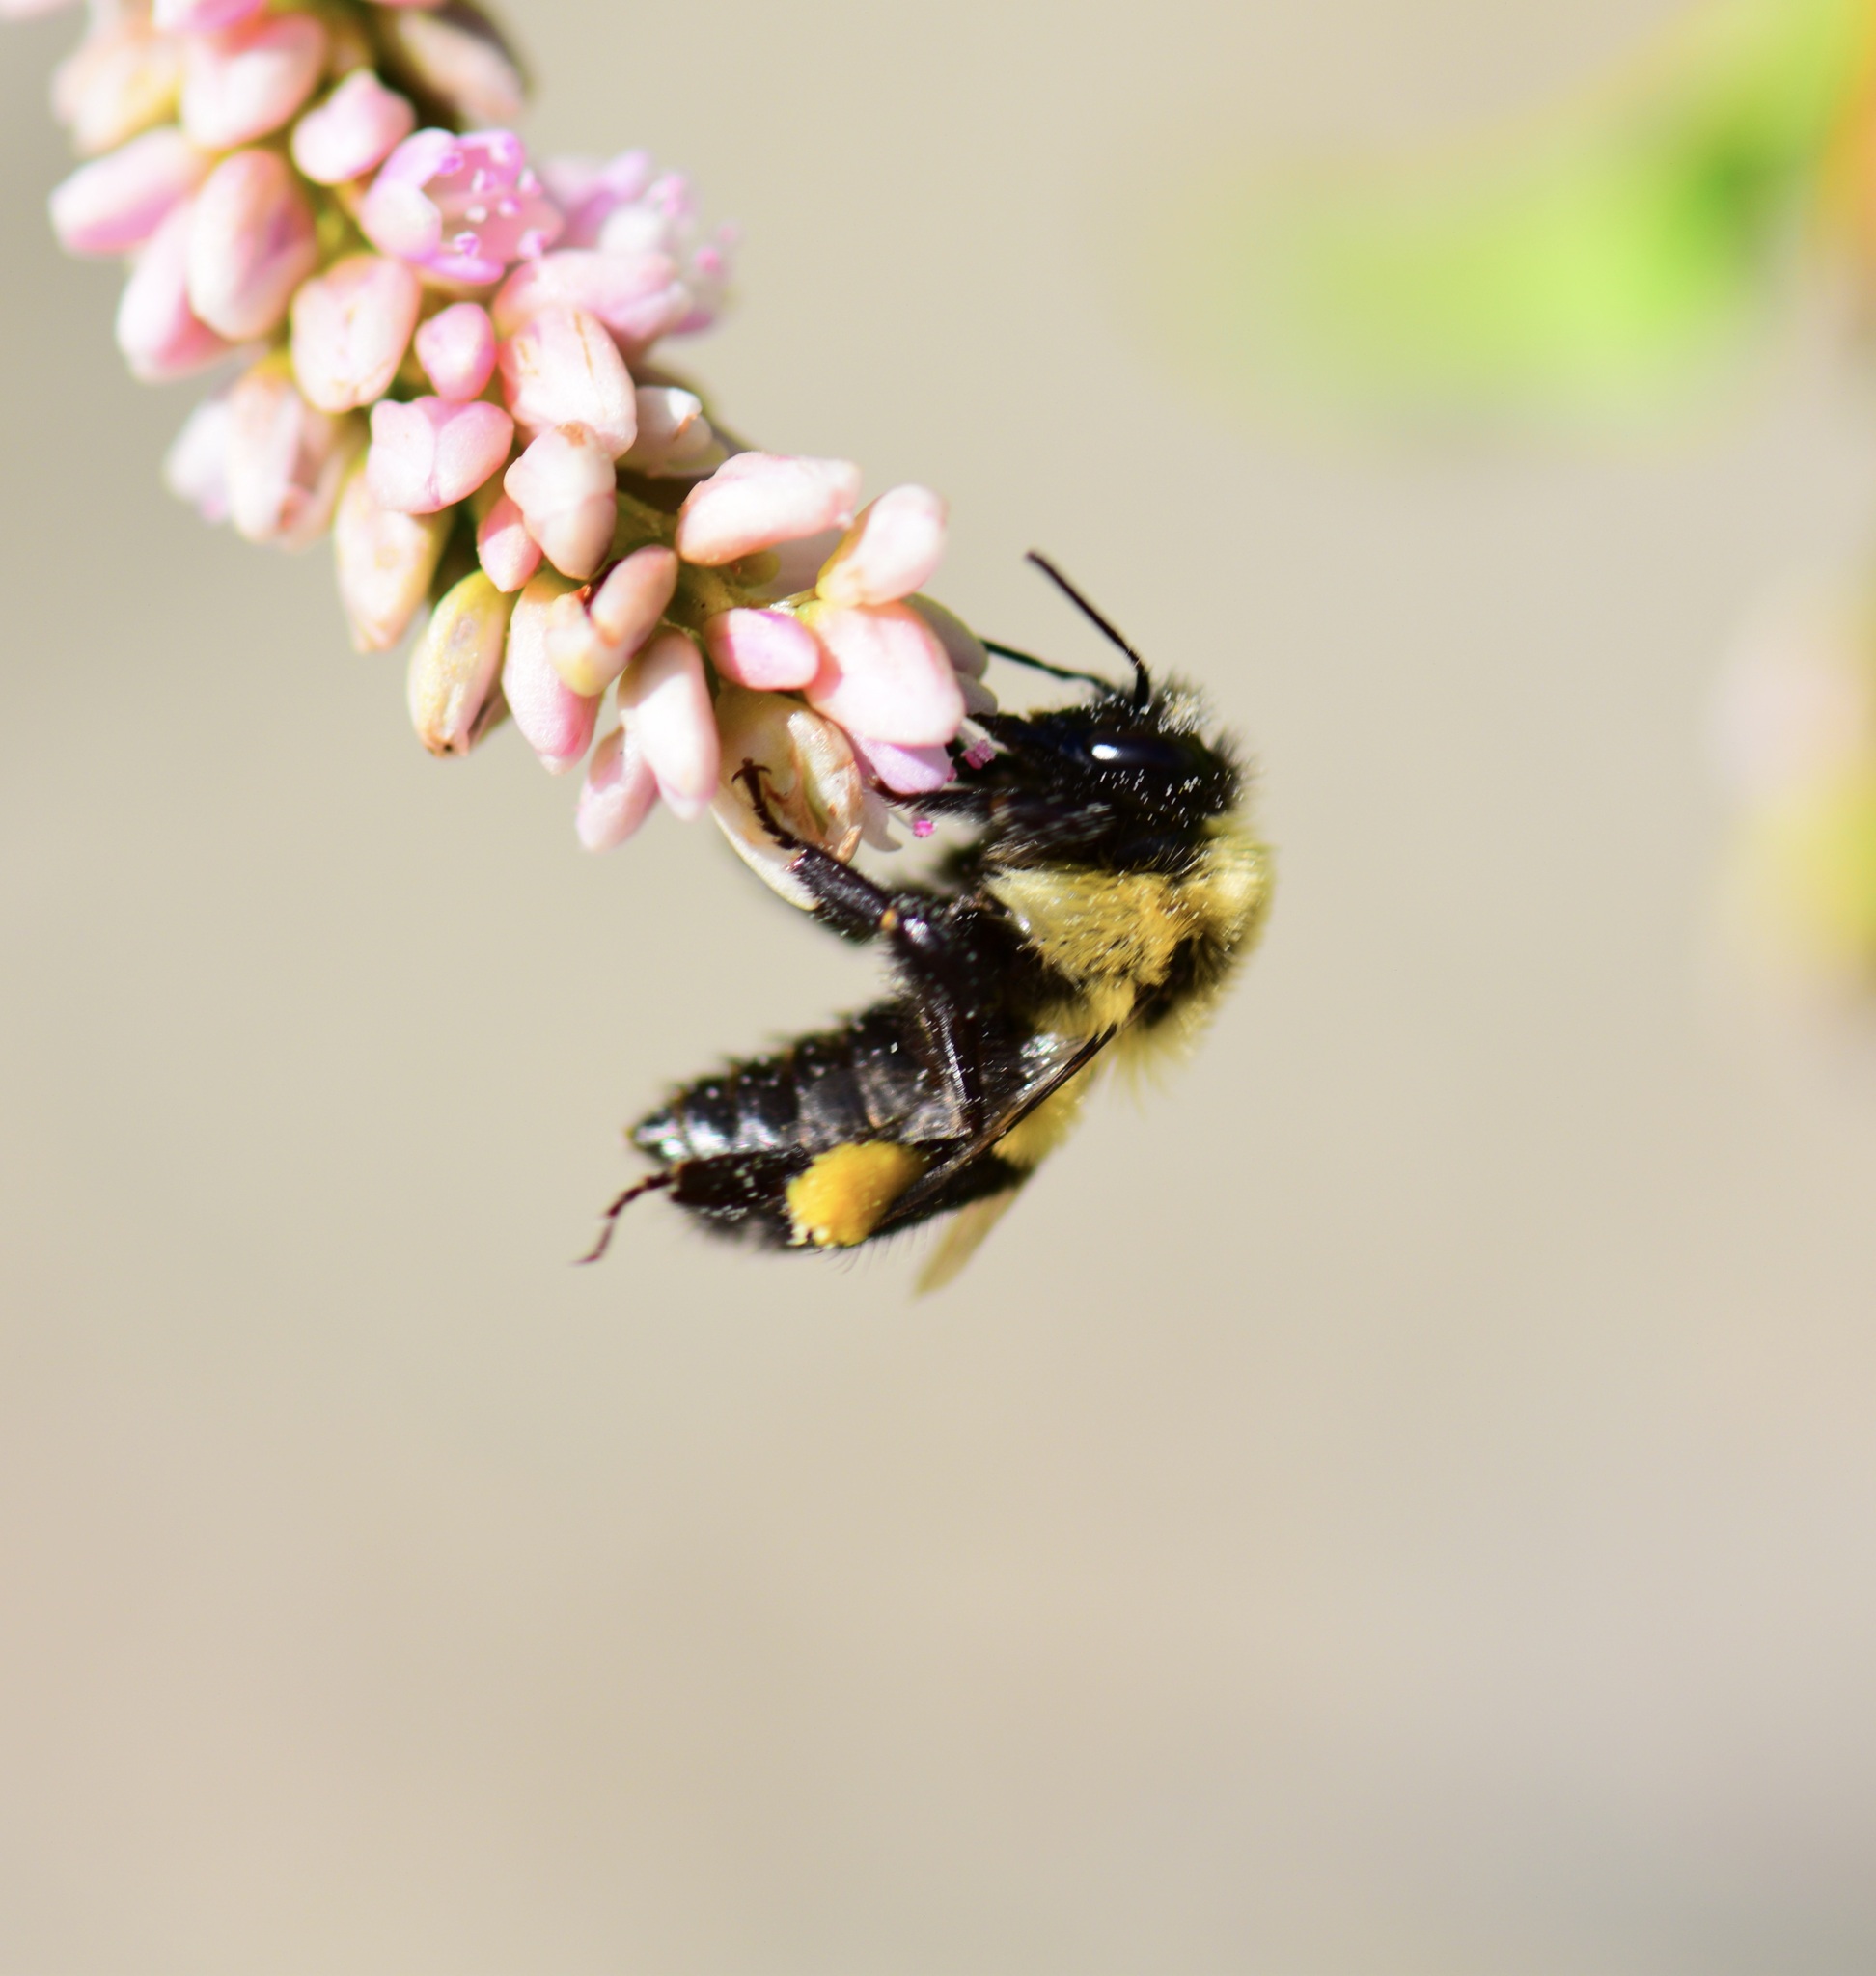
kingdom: Animalia
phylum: Arthropoda
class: Insecta
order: Hymenoptera
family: Apidae
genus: Bombus
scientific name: Bombus impatiens
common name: Common eastern bumble bee
